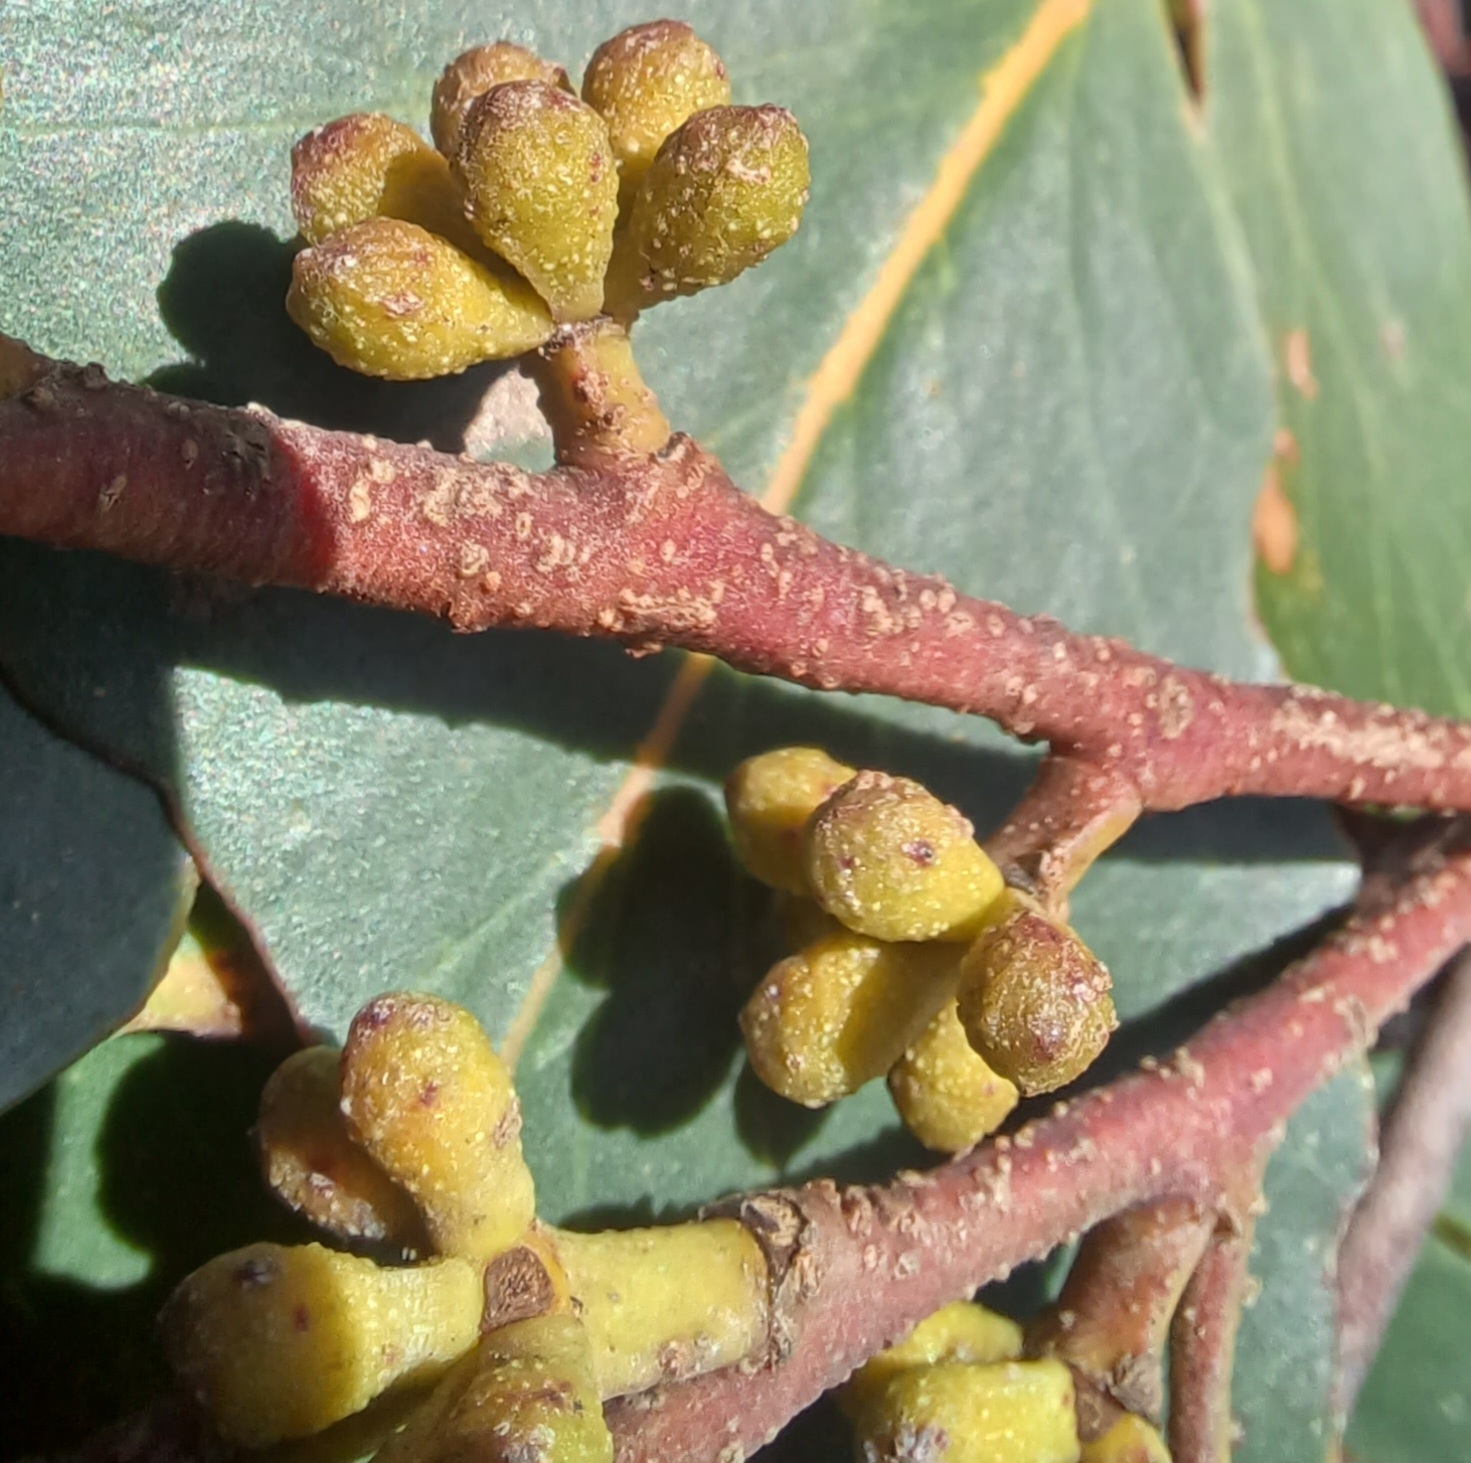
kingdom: Plantae
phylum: Tracheophyta
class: Magnoliopsida
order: Myrtales
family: Myrtaceae
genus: Eucalyptus
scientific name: Eucalyptus baxteri
